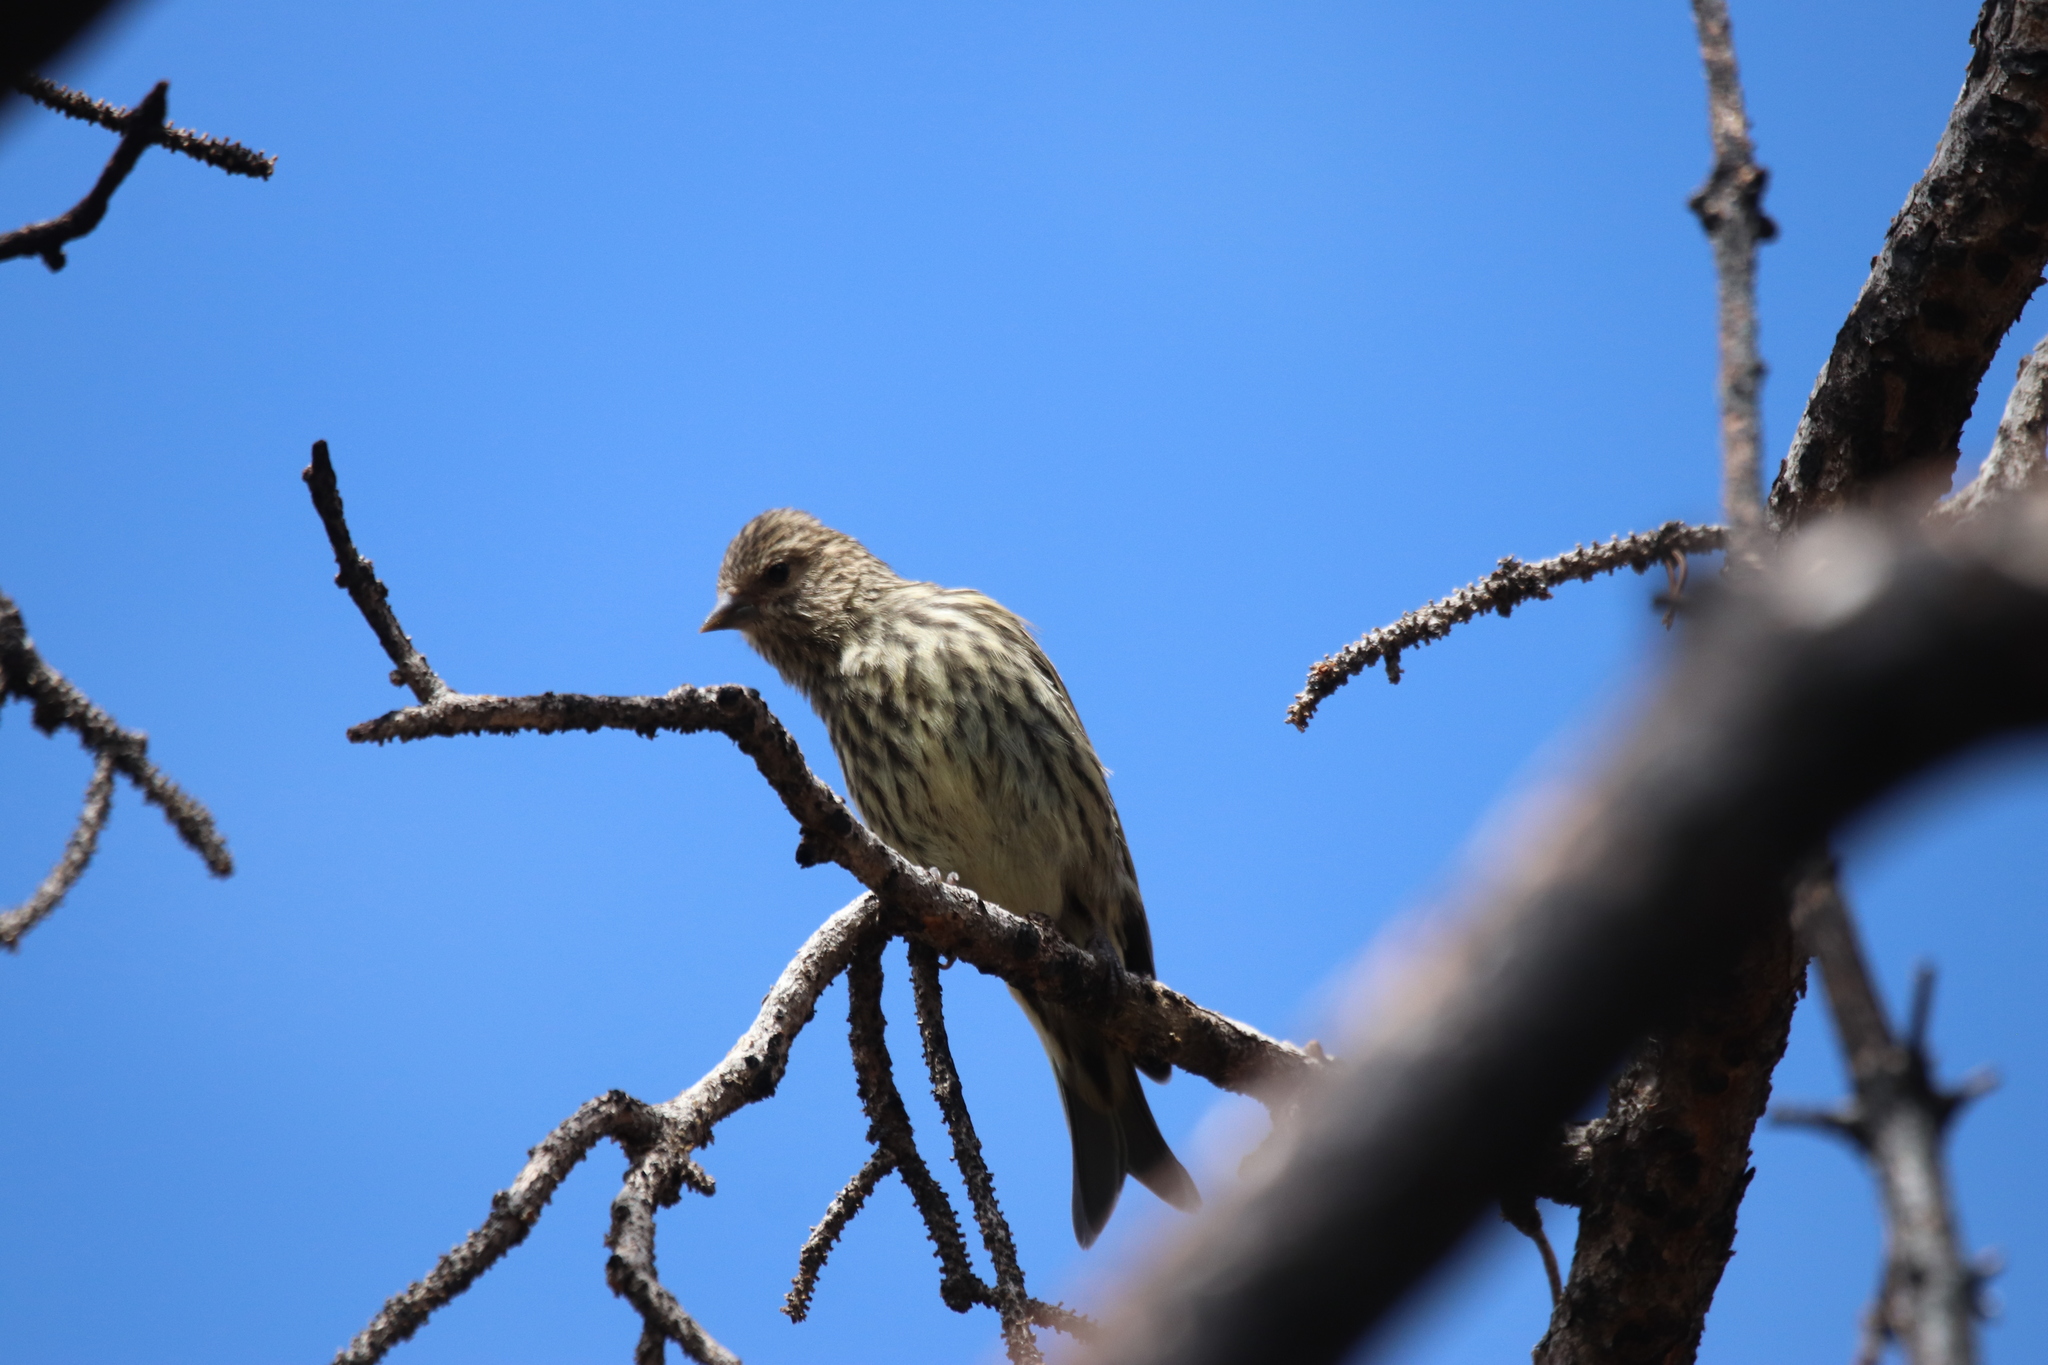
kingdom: Animalia
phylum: Chordata
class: Aves
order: Passeriformes
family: Fringillidae
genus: Spinus
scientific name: Spinus pinus
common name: Pine siskin
